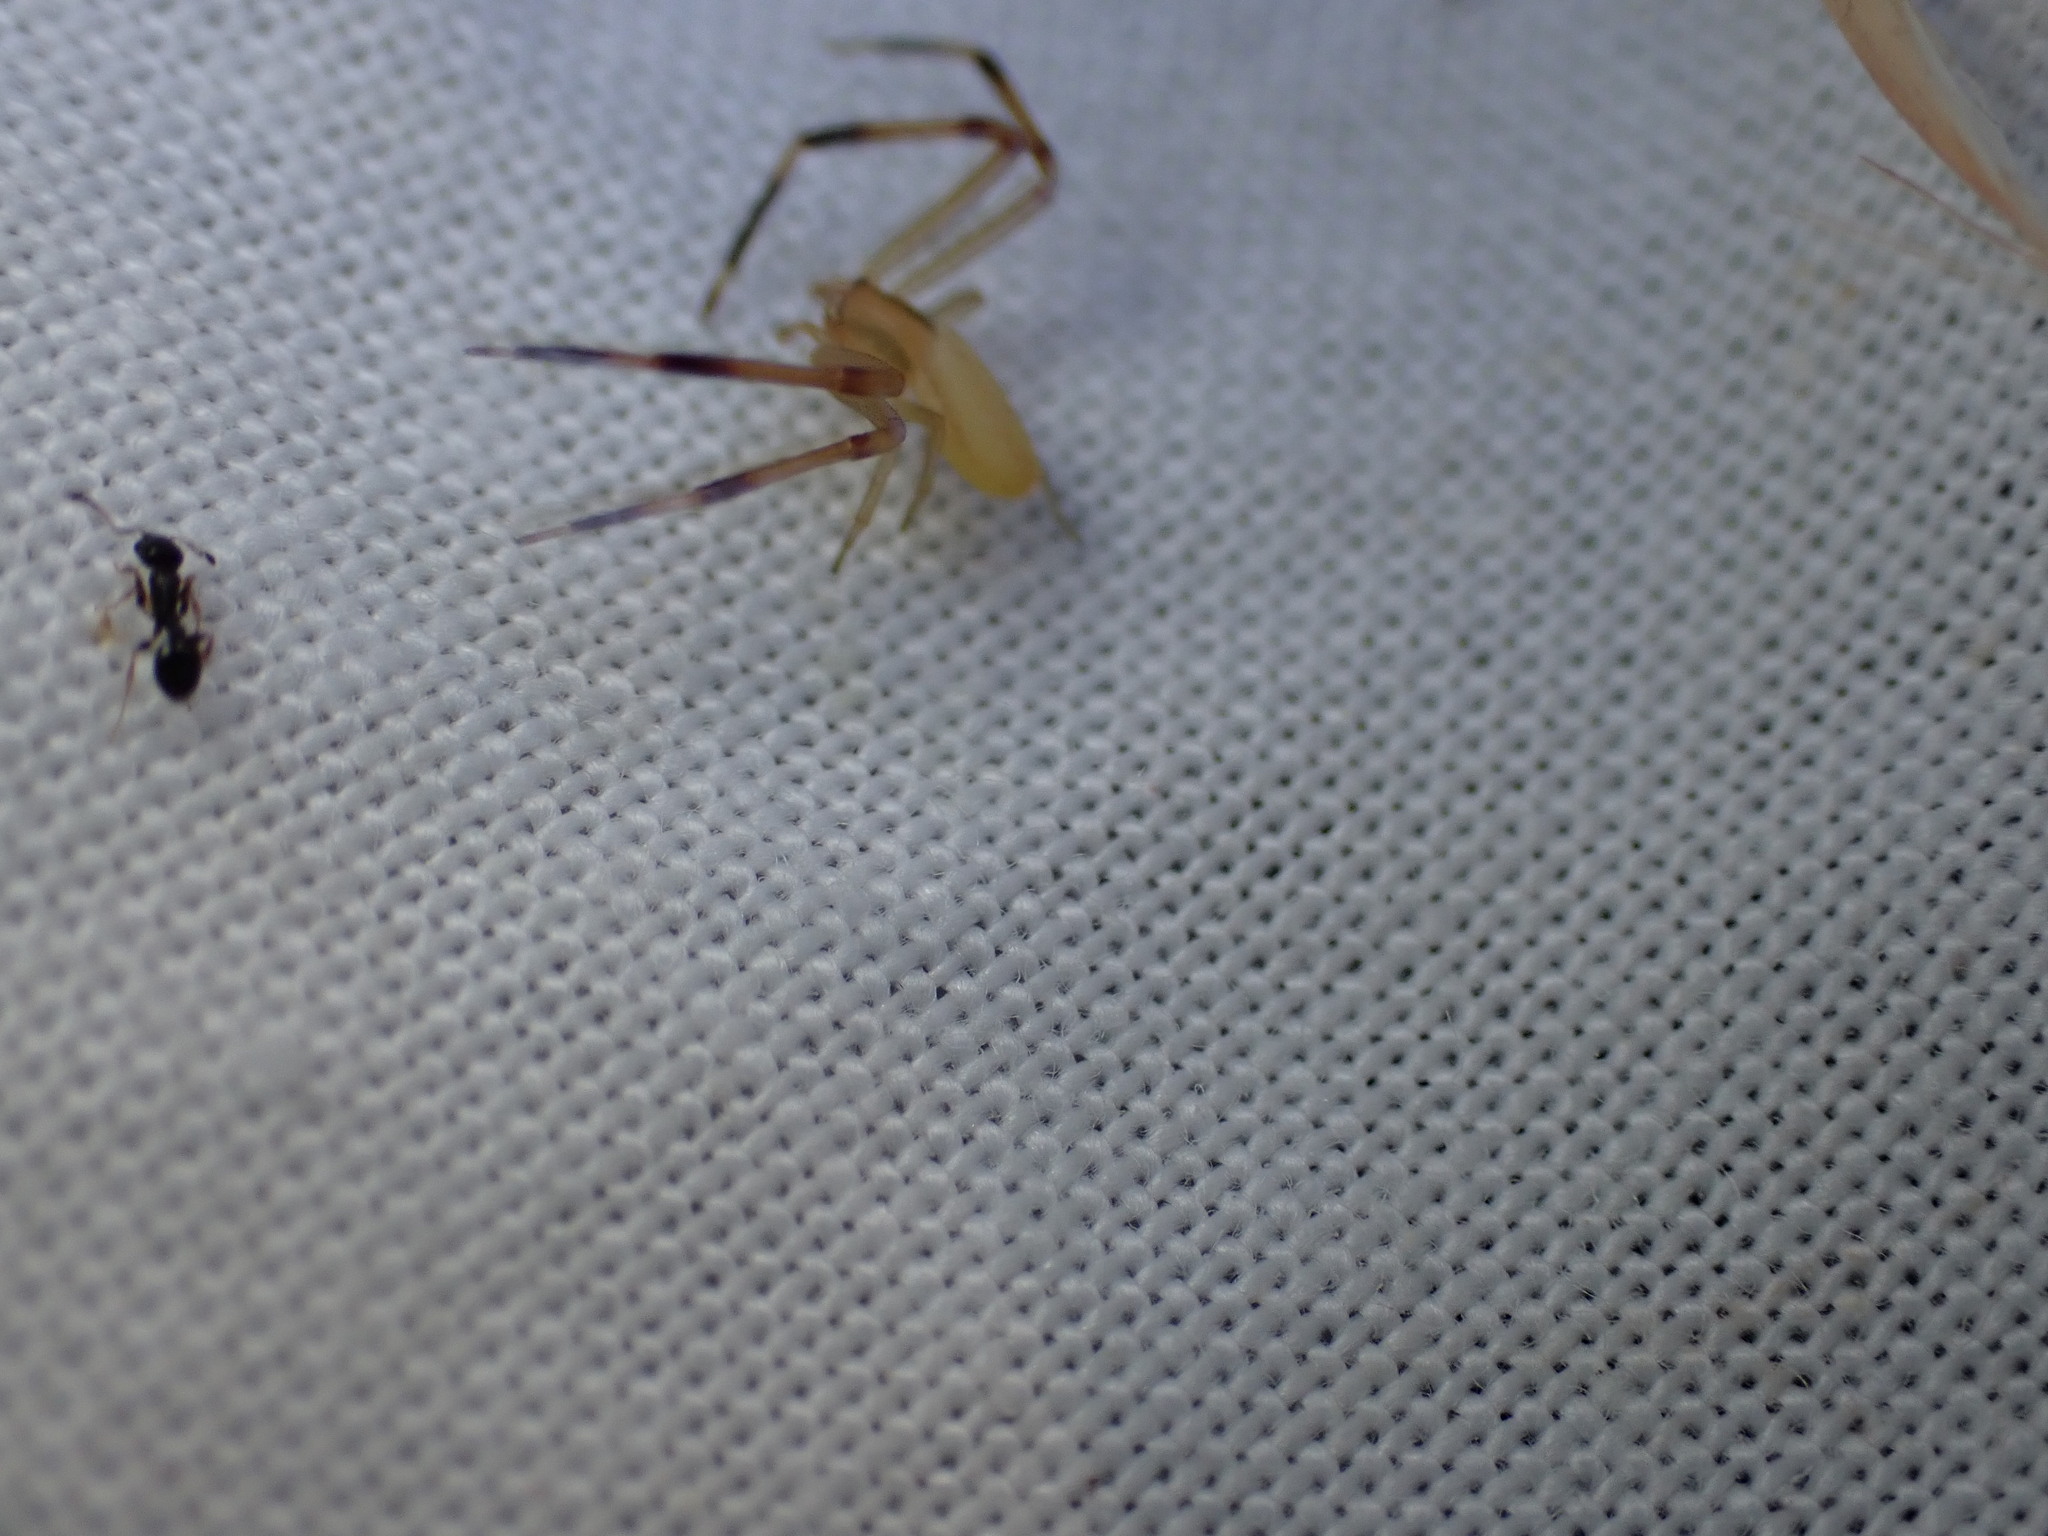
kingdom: Animalia
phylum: Arthropoda
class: Arachnida
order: Araneae
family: Thomisidae
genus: Runcinia
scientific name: Runcinia grammica
